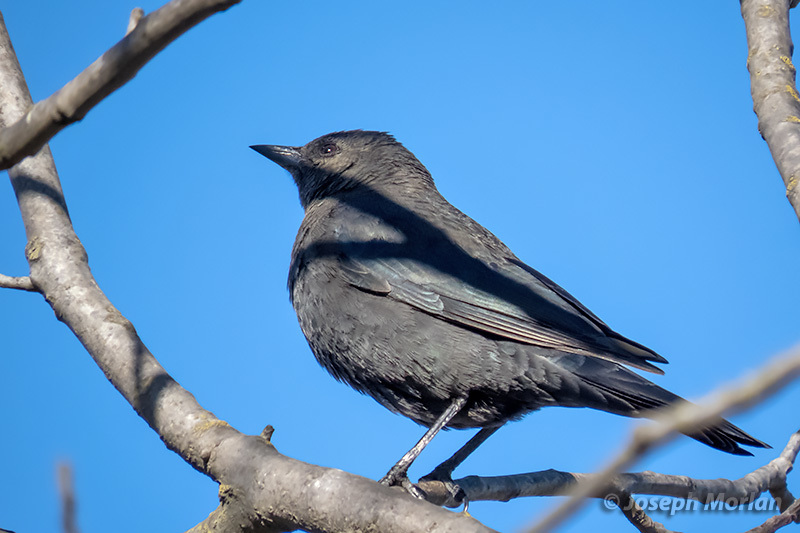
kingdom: Animalia
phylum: Chordata
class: Aves
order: Passeriformes
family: Icteridae
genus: Euphagus
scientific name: Euphagus cyanocephalus
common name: Brewer's blackbird
